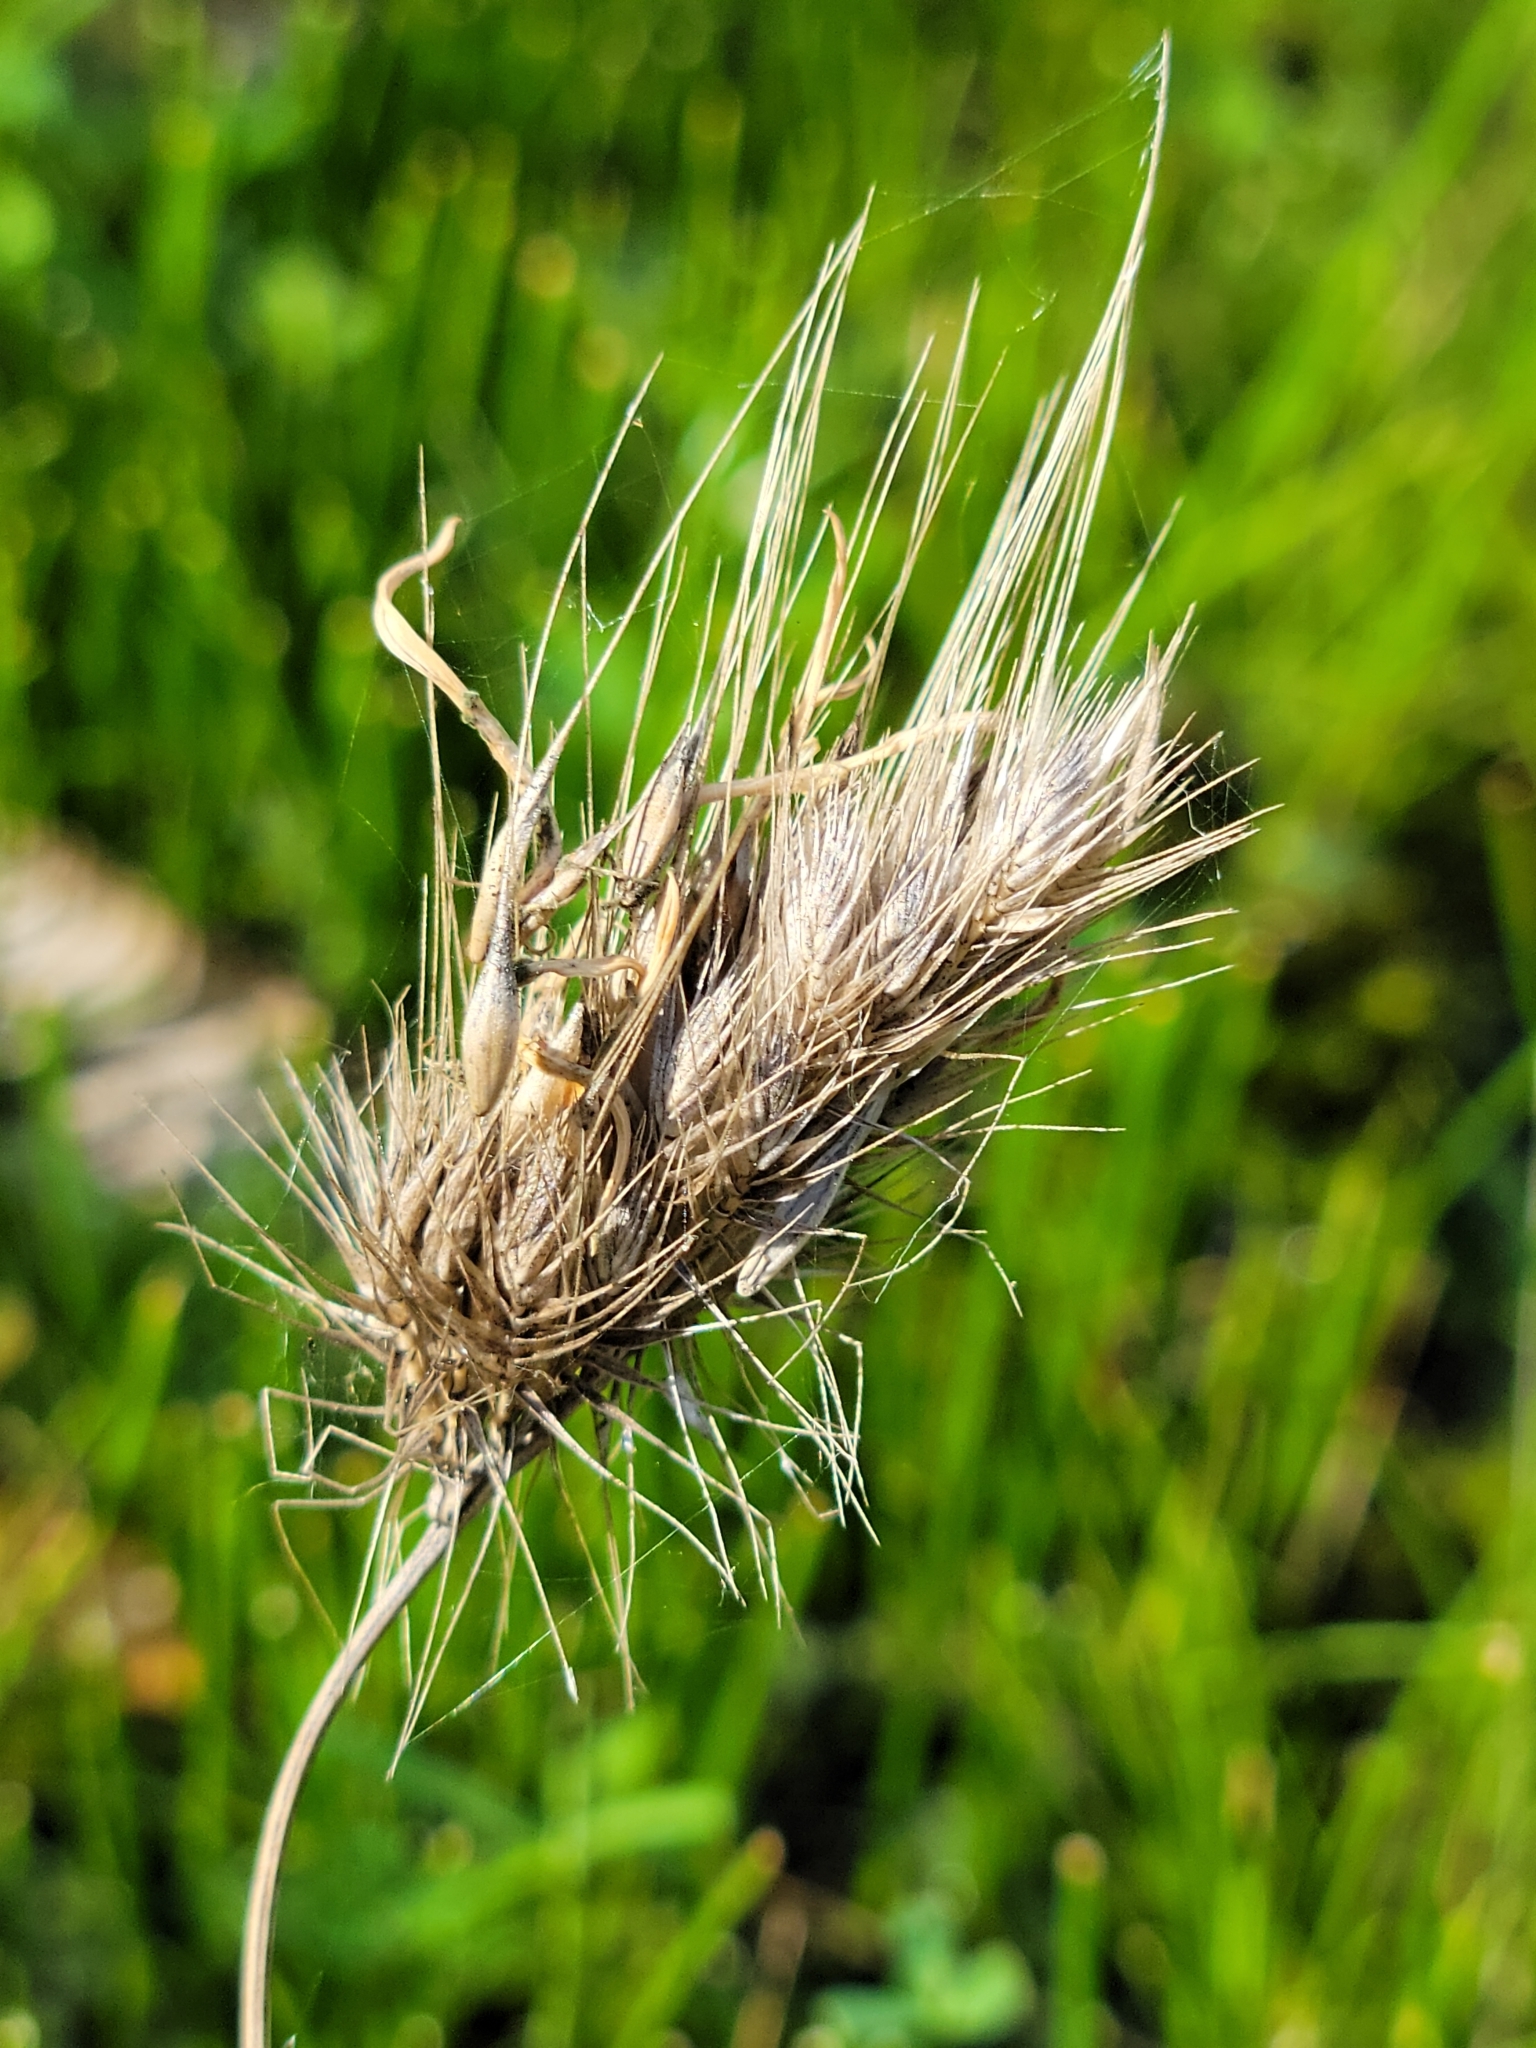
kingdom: Plantae
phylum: Tracheophyta
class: Liliopsida
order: Poales
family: Poaceae
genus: Cynosurus
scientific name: Cynosurus echinatus
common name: Rough dog's-tail
